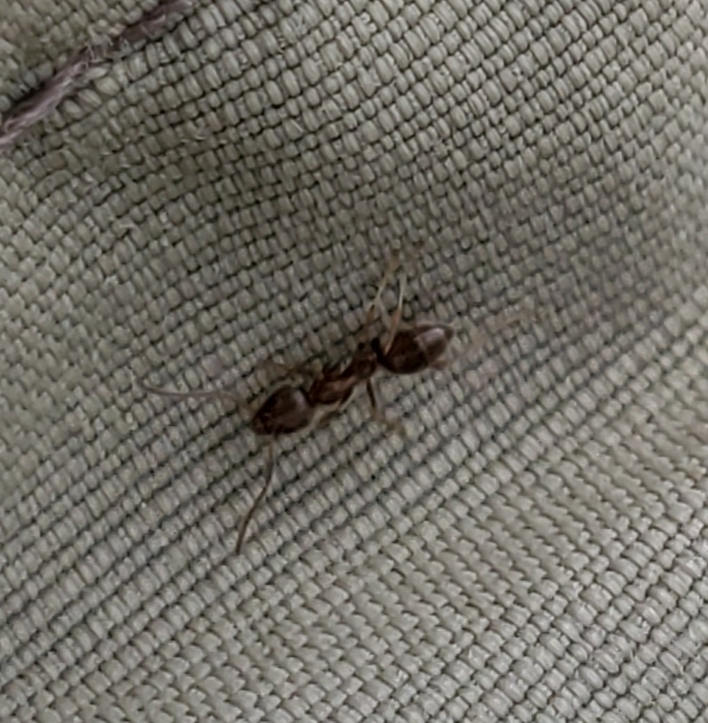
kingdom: Animalia
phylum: Arthropoda
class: Insecta
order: Hymenoptera
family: Formicidae
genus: Linepithema
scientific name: Linepithema humile
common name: Argentine ant
